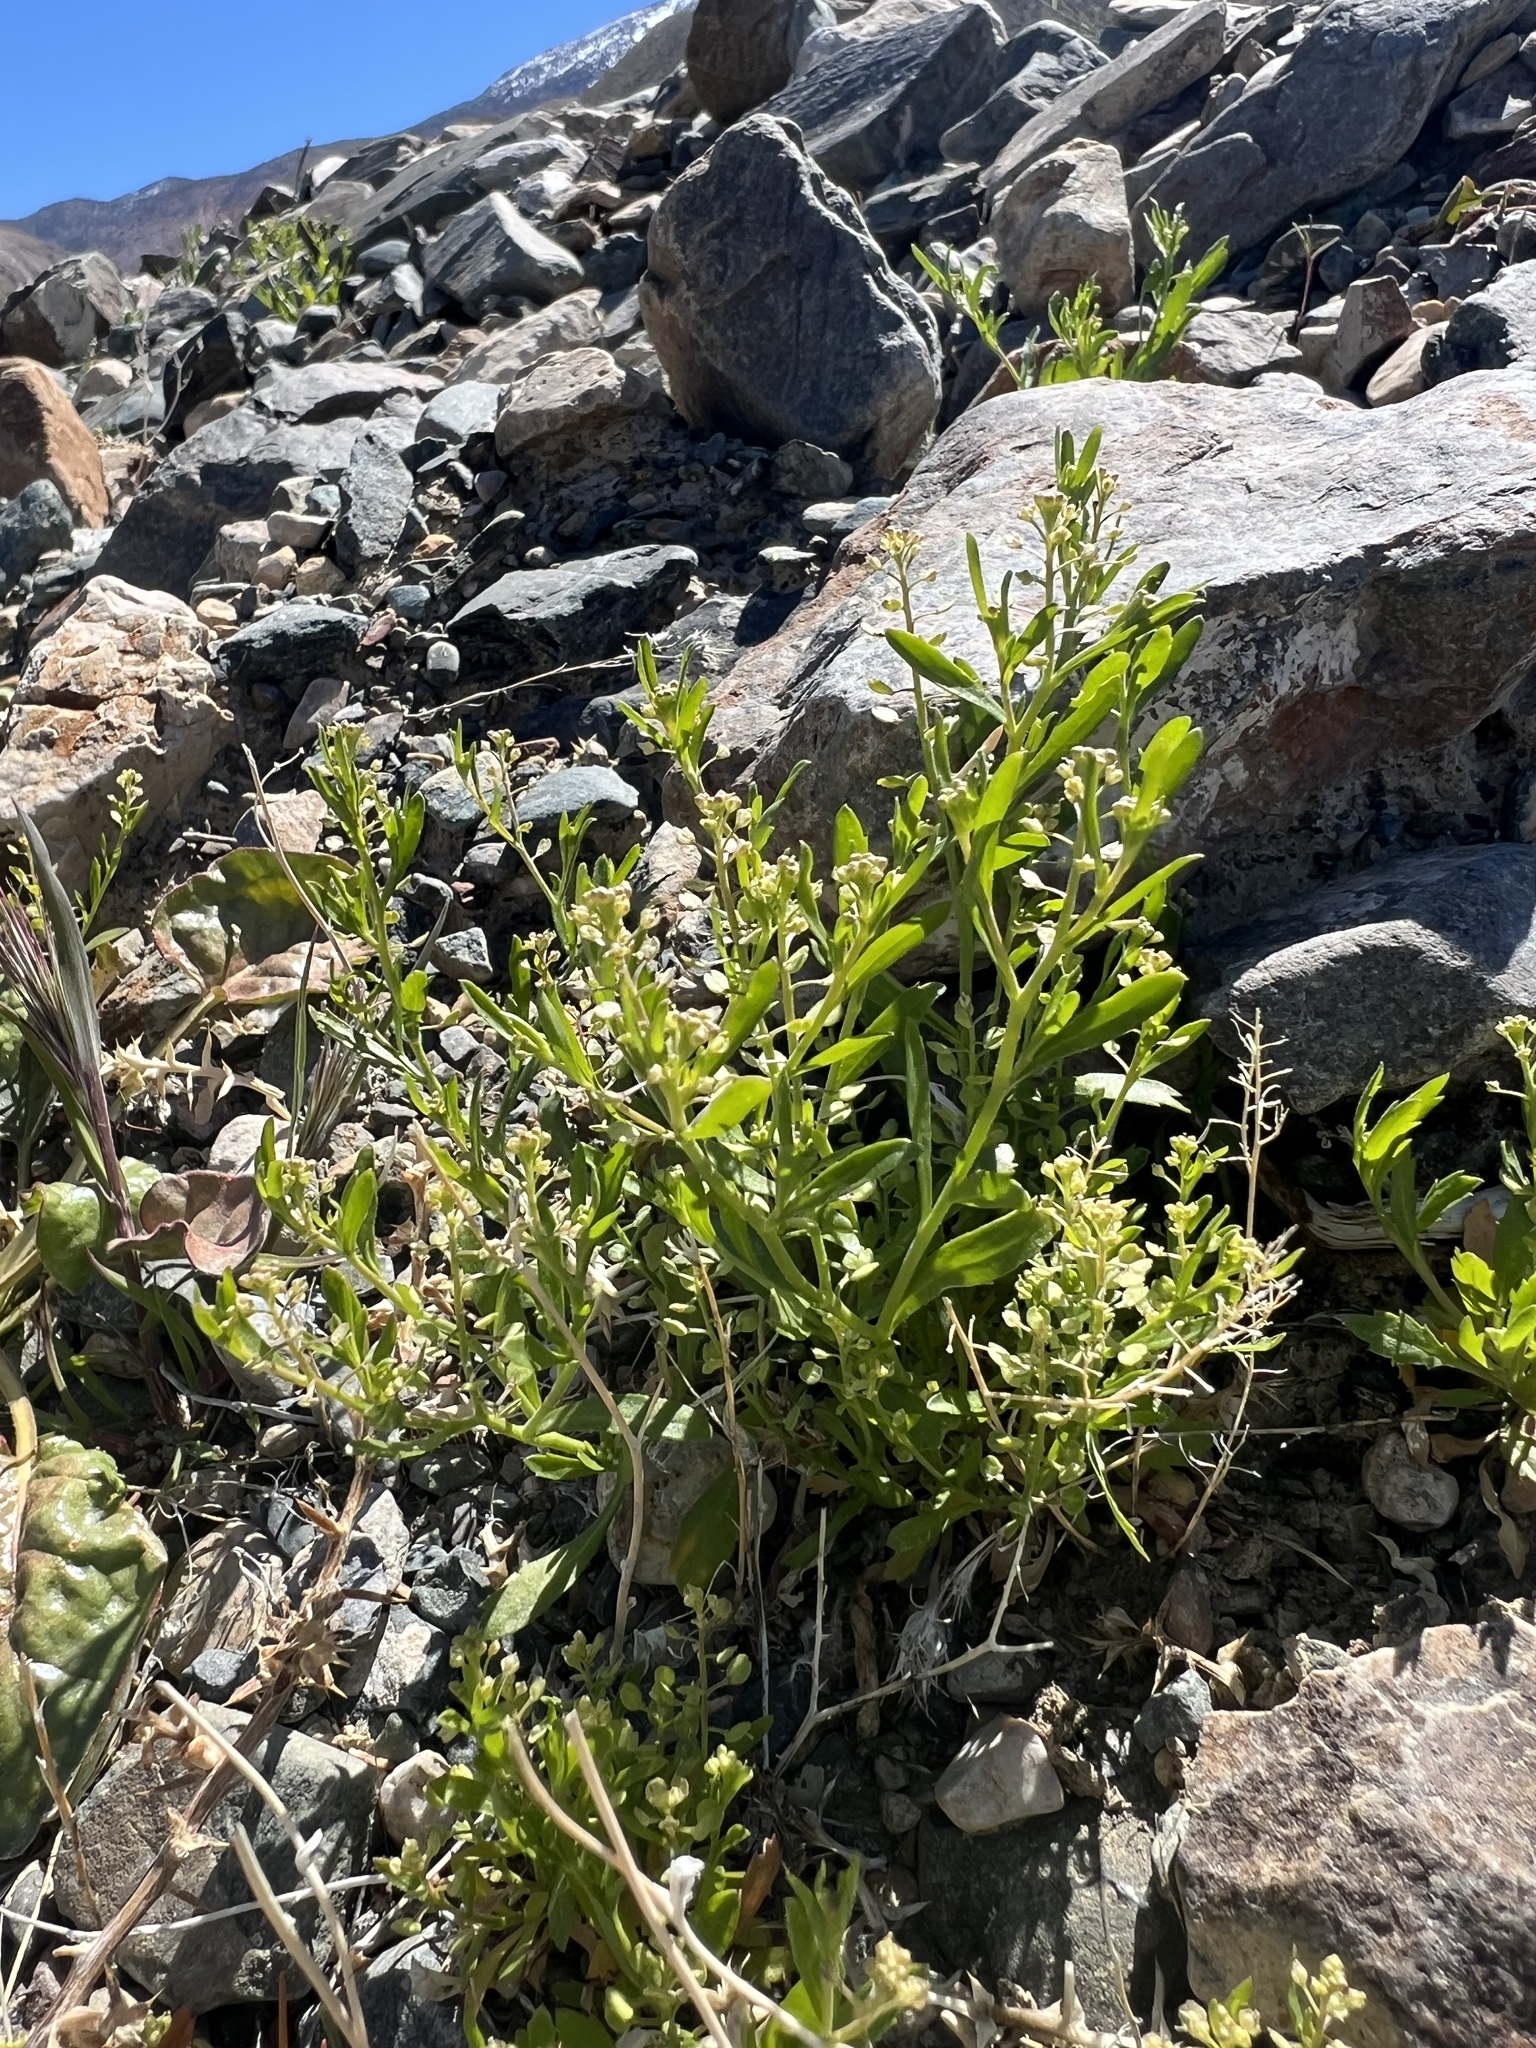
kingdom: Plantae
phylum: Tracheophyta
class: Magnoliopsida
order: Brassicales
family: Brassicaceae
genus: Lepidium
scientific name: Lepidium lasiocarpum
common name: Hairy-pod pepperwort
